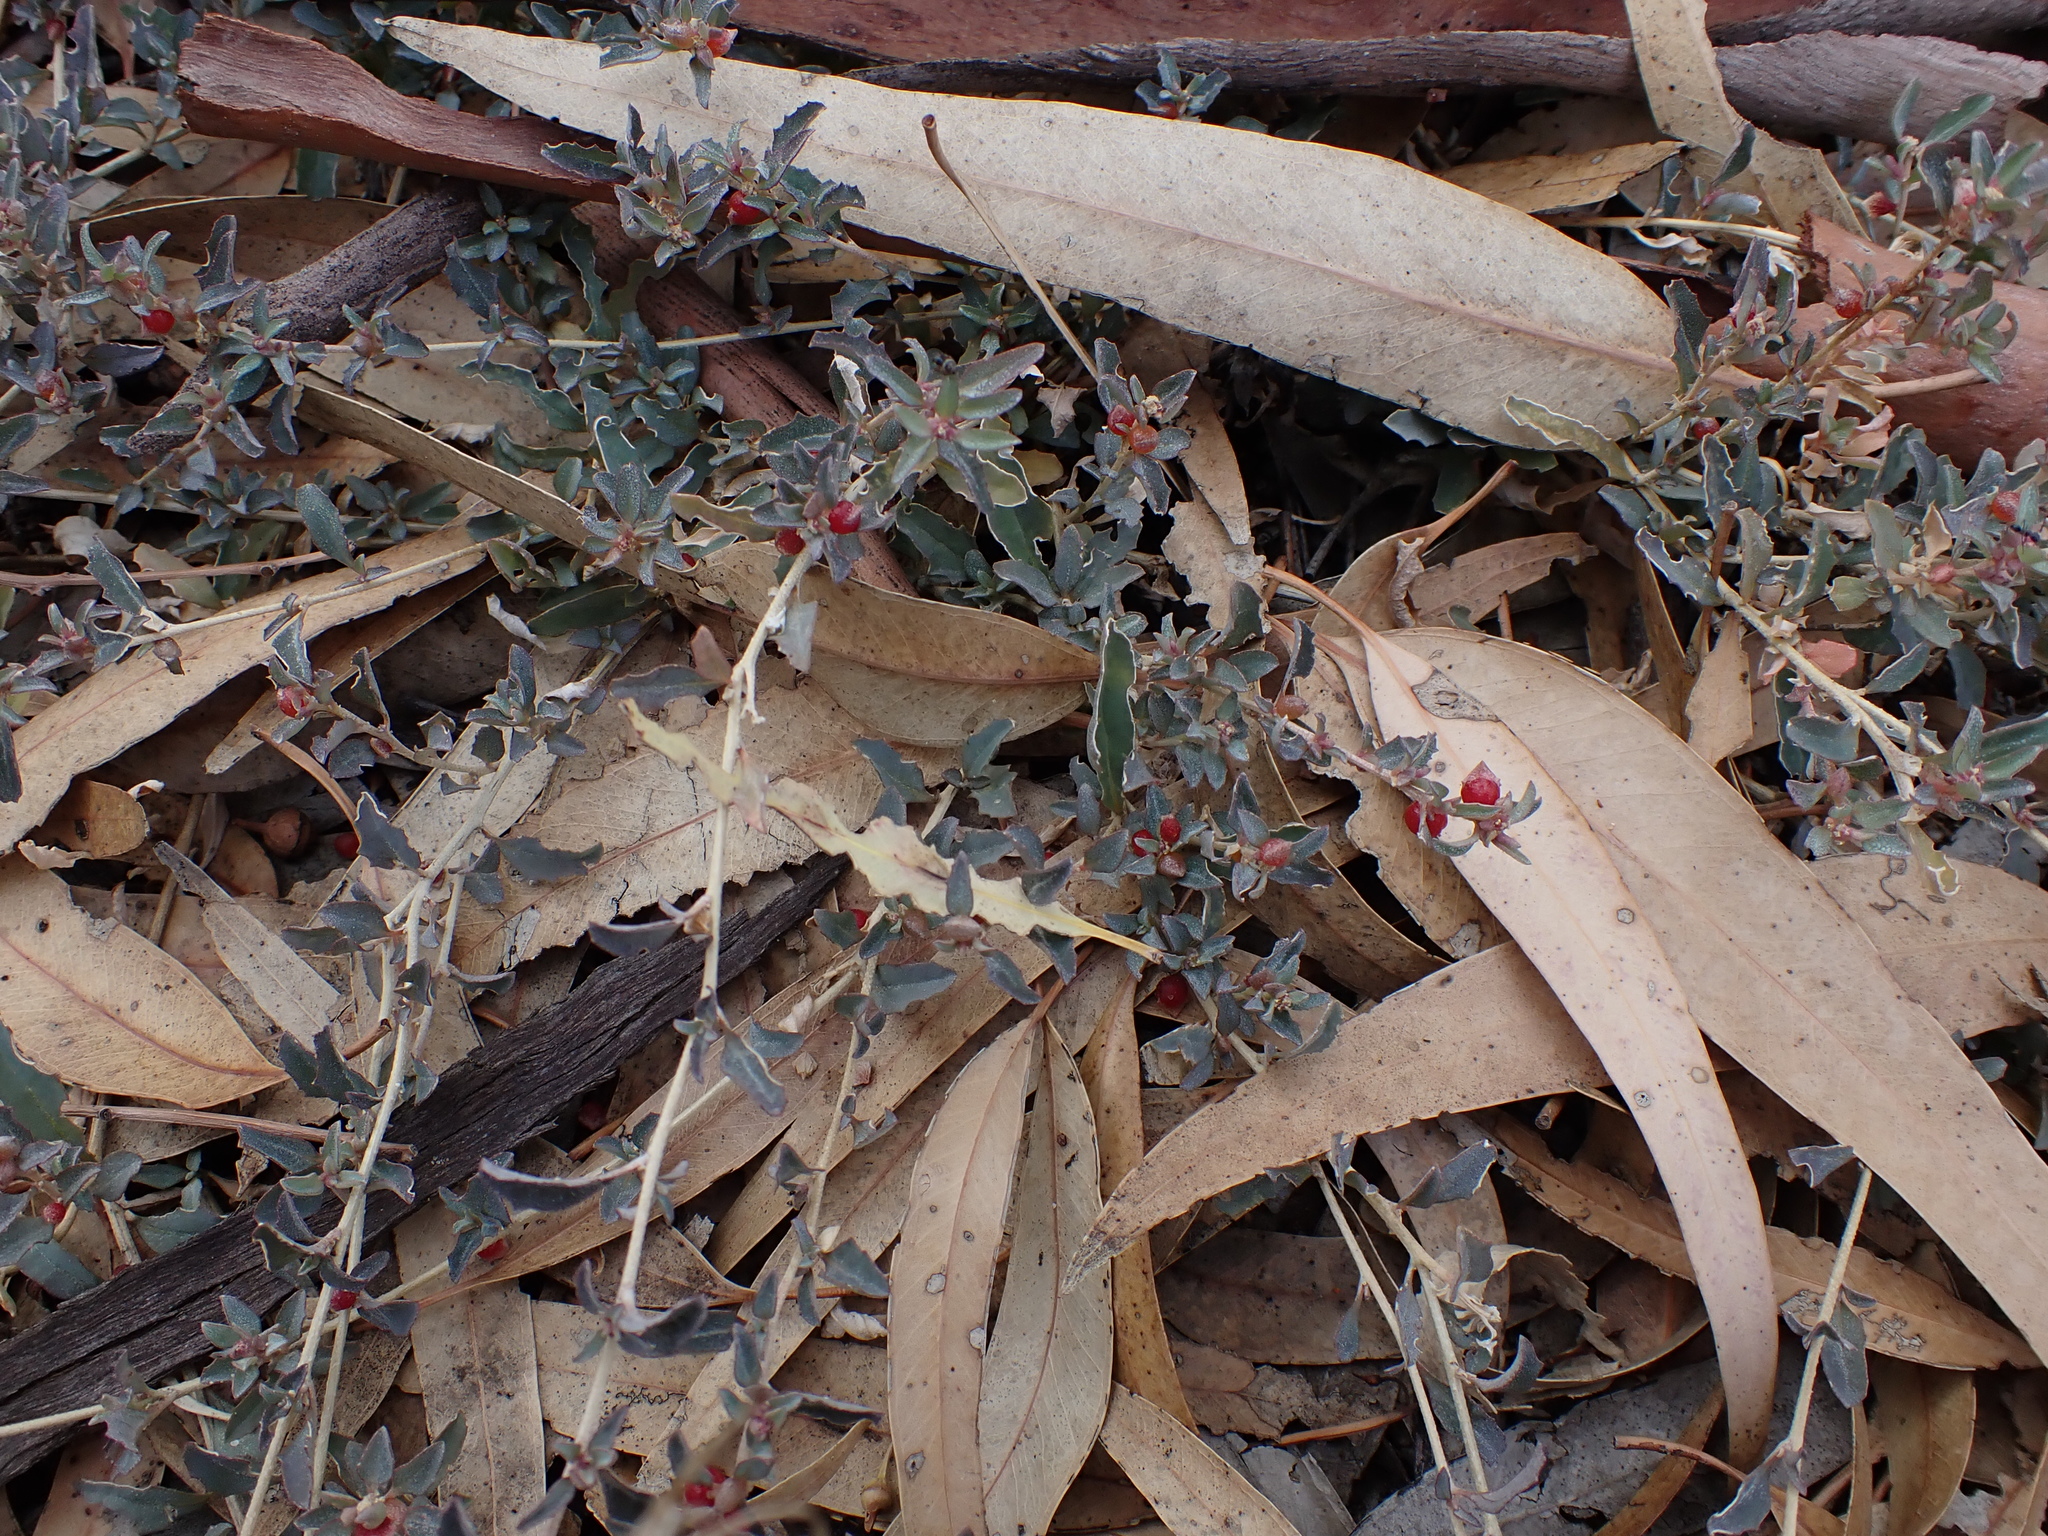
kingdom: Plantae
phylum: Tracheophyta
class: Magnoliopsida
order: Caryophyllales
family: Amaranthaceae
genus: Atriplex
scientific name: Atriplex semibaccata
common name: Australian saltbush
